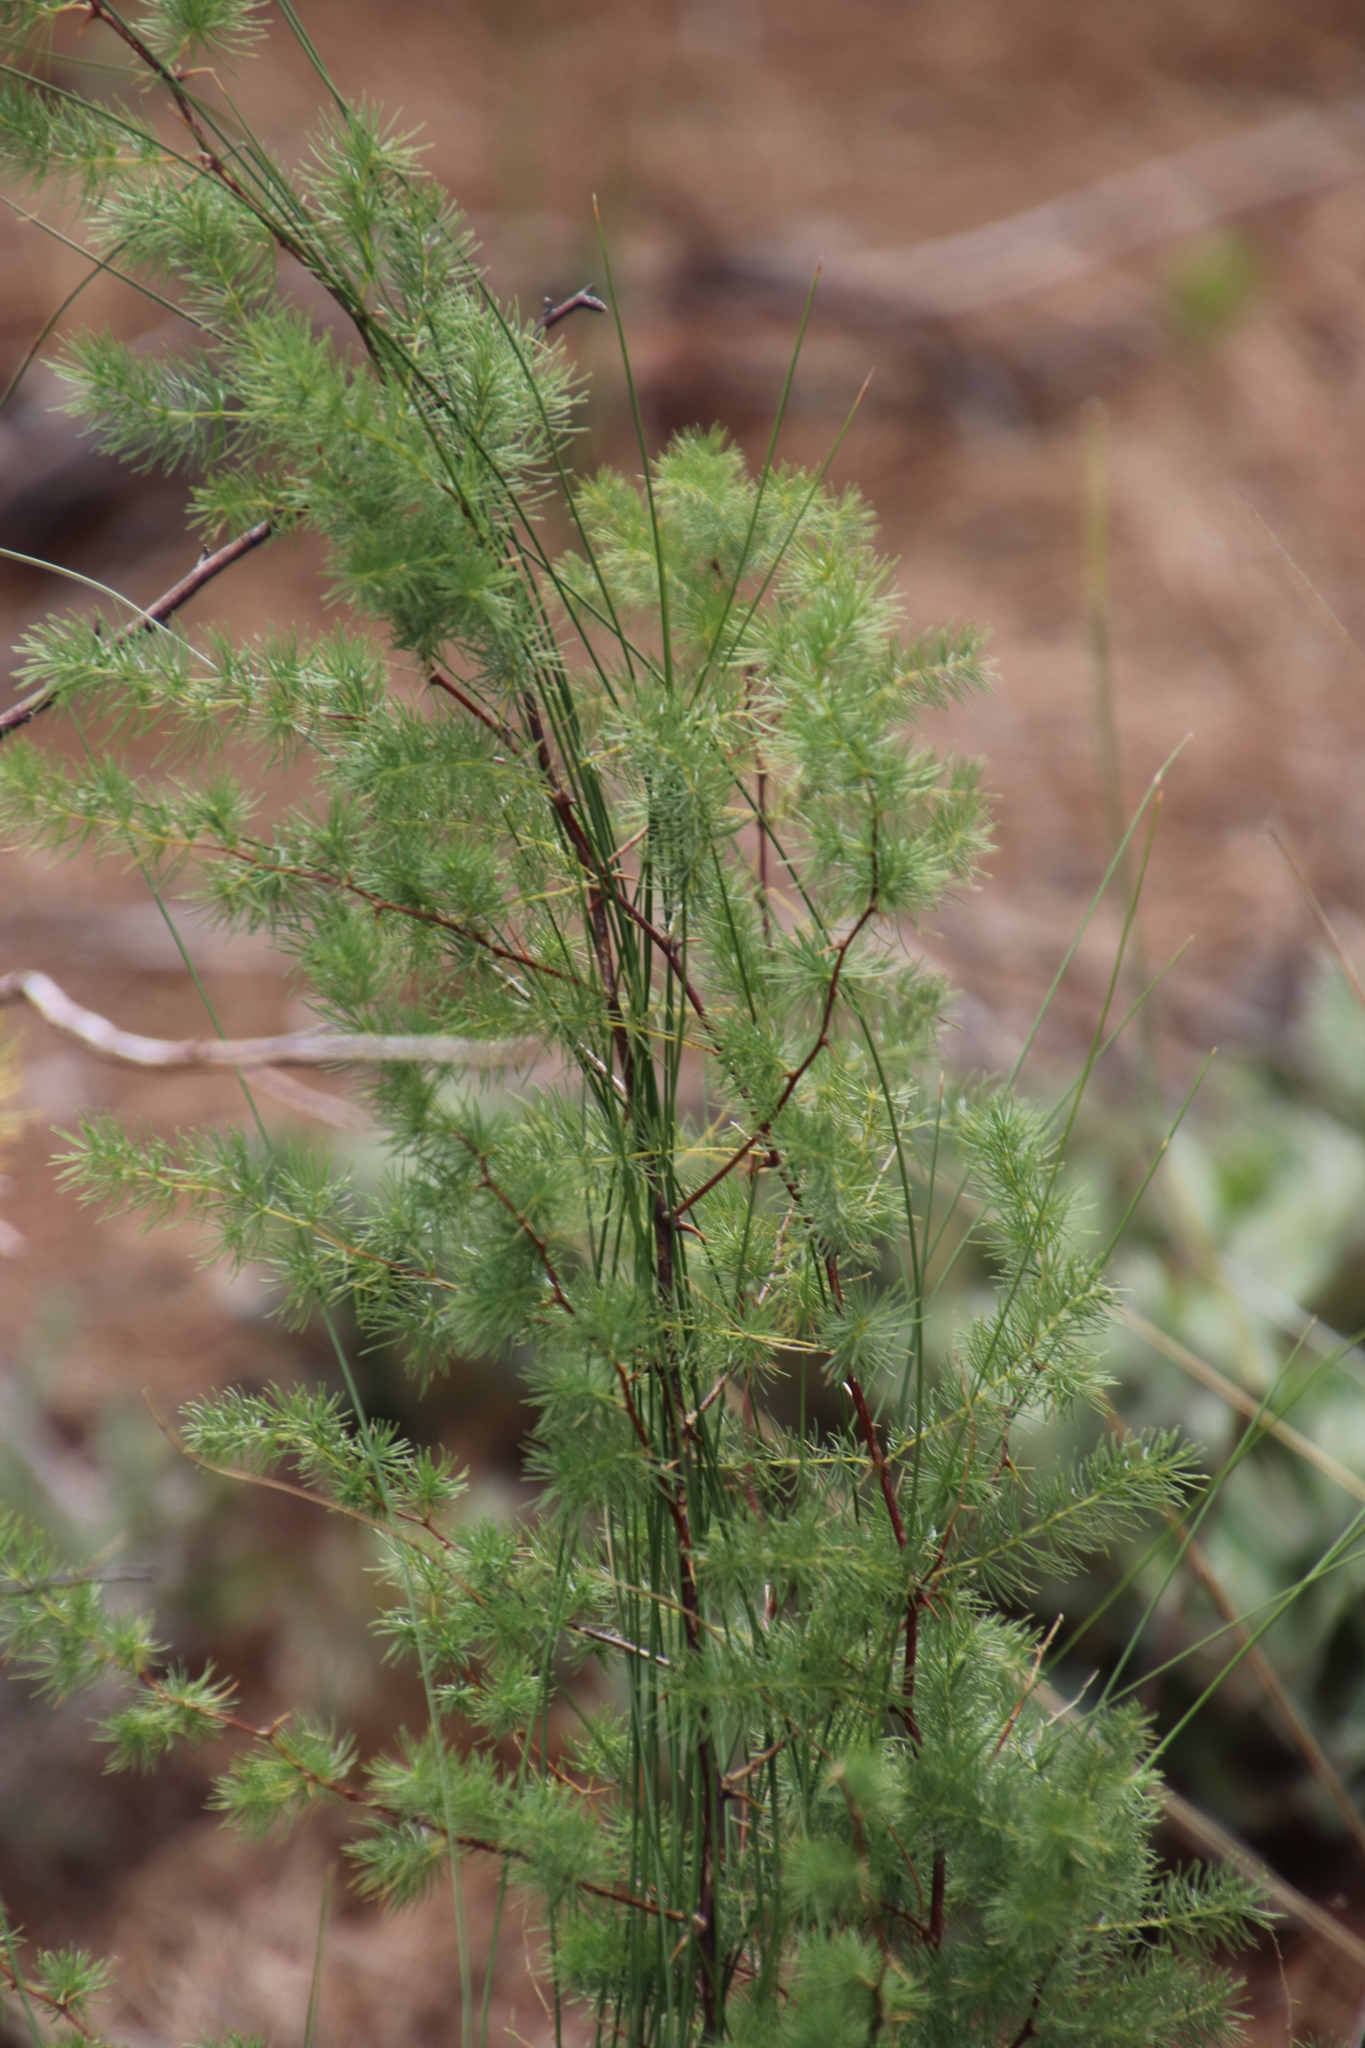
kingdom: Plantae
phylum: Tracheophyta
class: Liliopsida
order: Asparagales
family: Asparagaceae
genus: Asparagus
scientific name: Asparagus rubicundus
